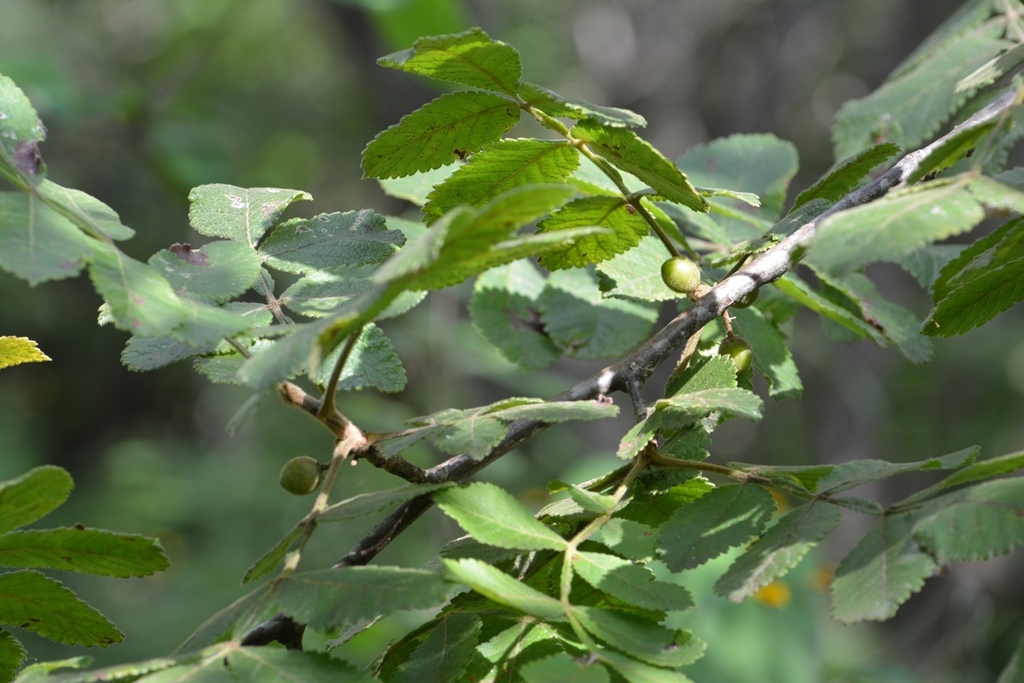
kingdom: Plantae
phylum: Tracheophyta
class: Magnoliopsida
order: Sapindales
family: Burseraceae
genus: Bursera
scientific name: Bursera excelsa
